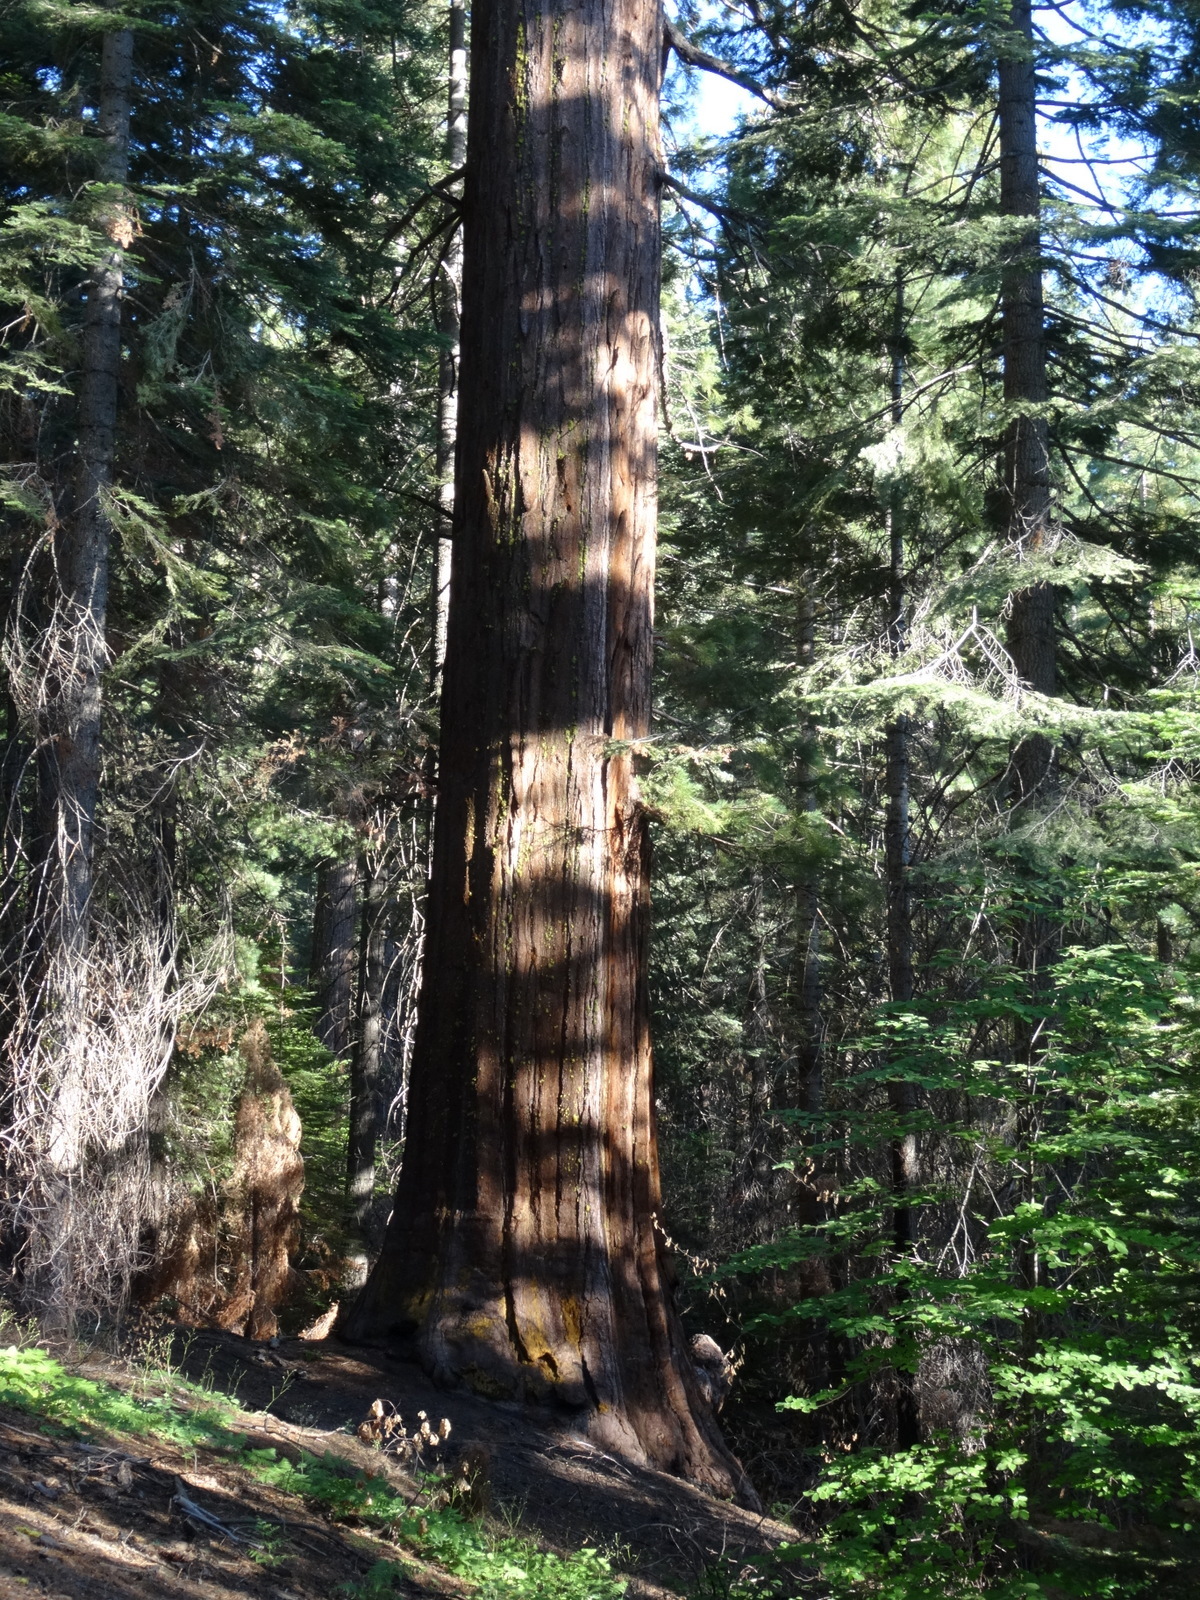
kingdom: Plantae
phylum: Tracheophyta
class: Pinopsida
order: Pinales
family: Cupressaceae
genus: Sequoiadendron
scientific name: Sequoiadendron giganteum
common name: Wellingtonia
